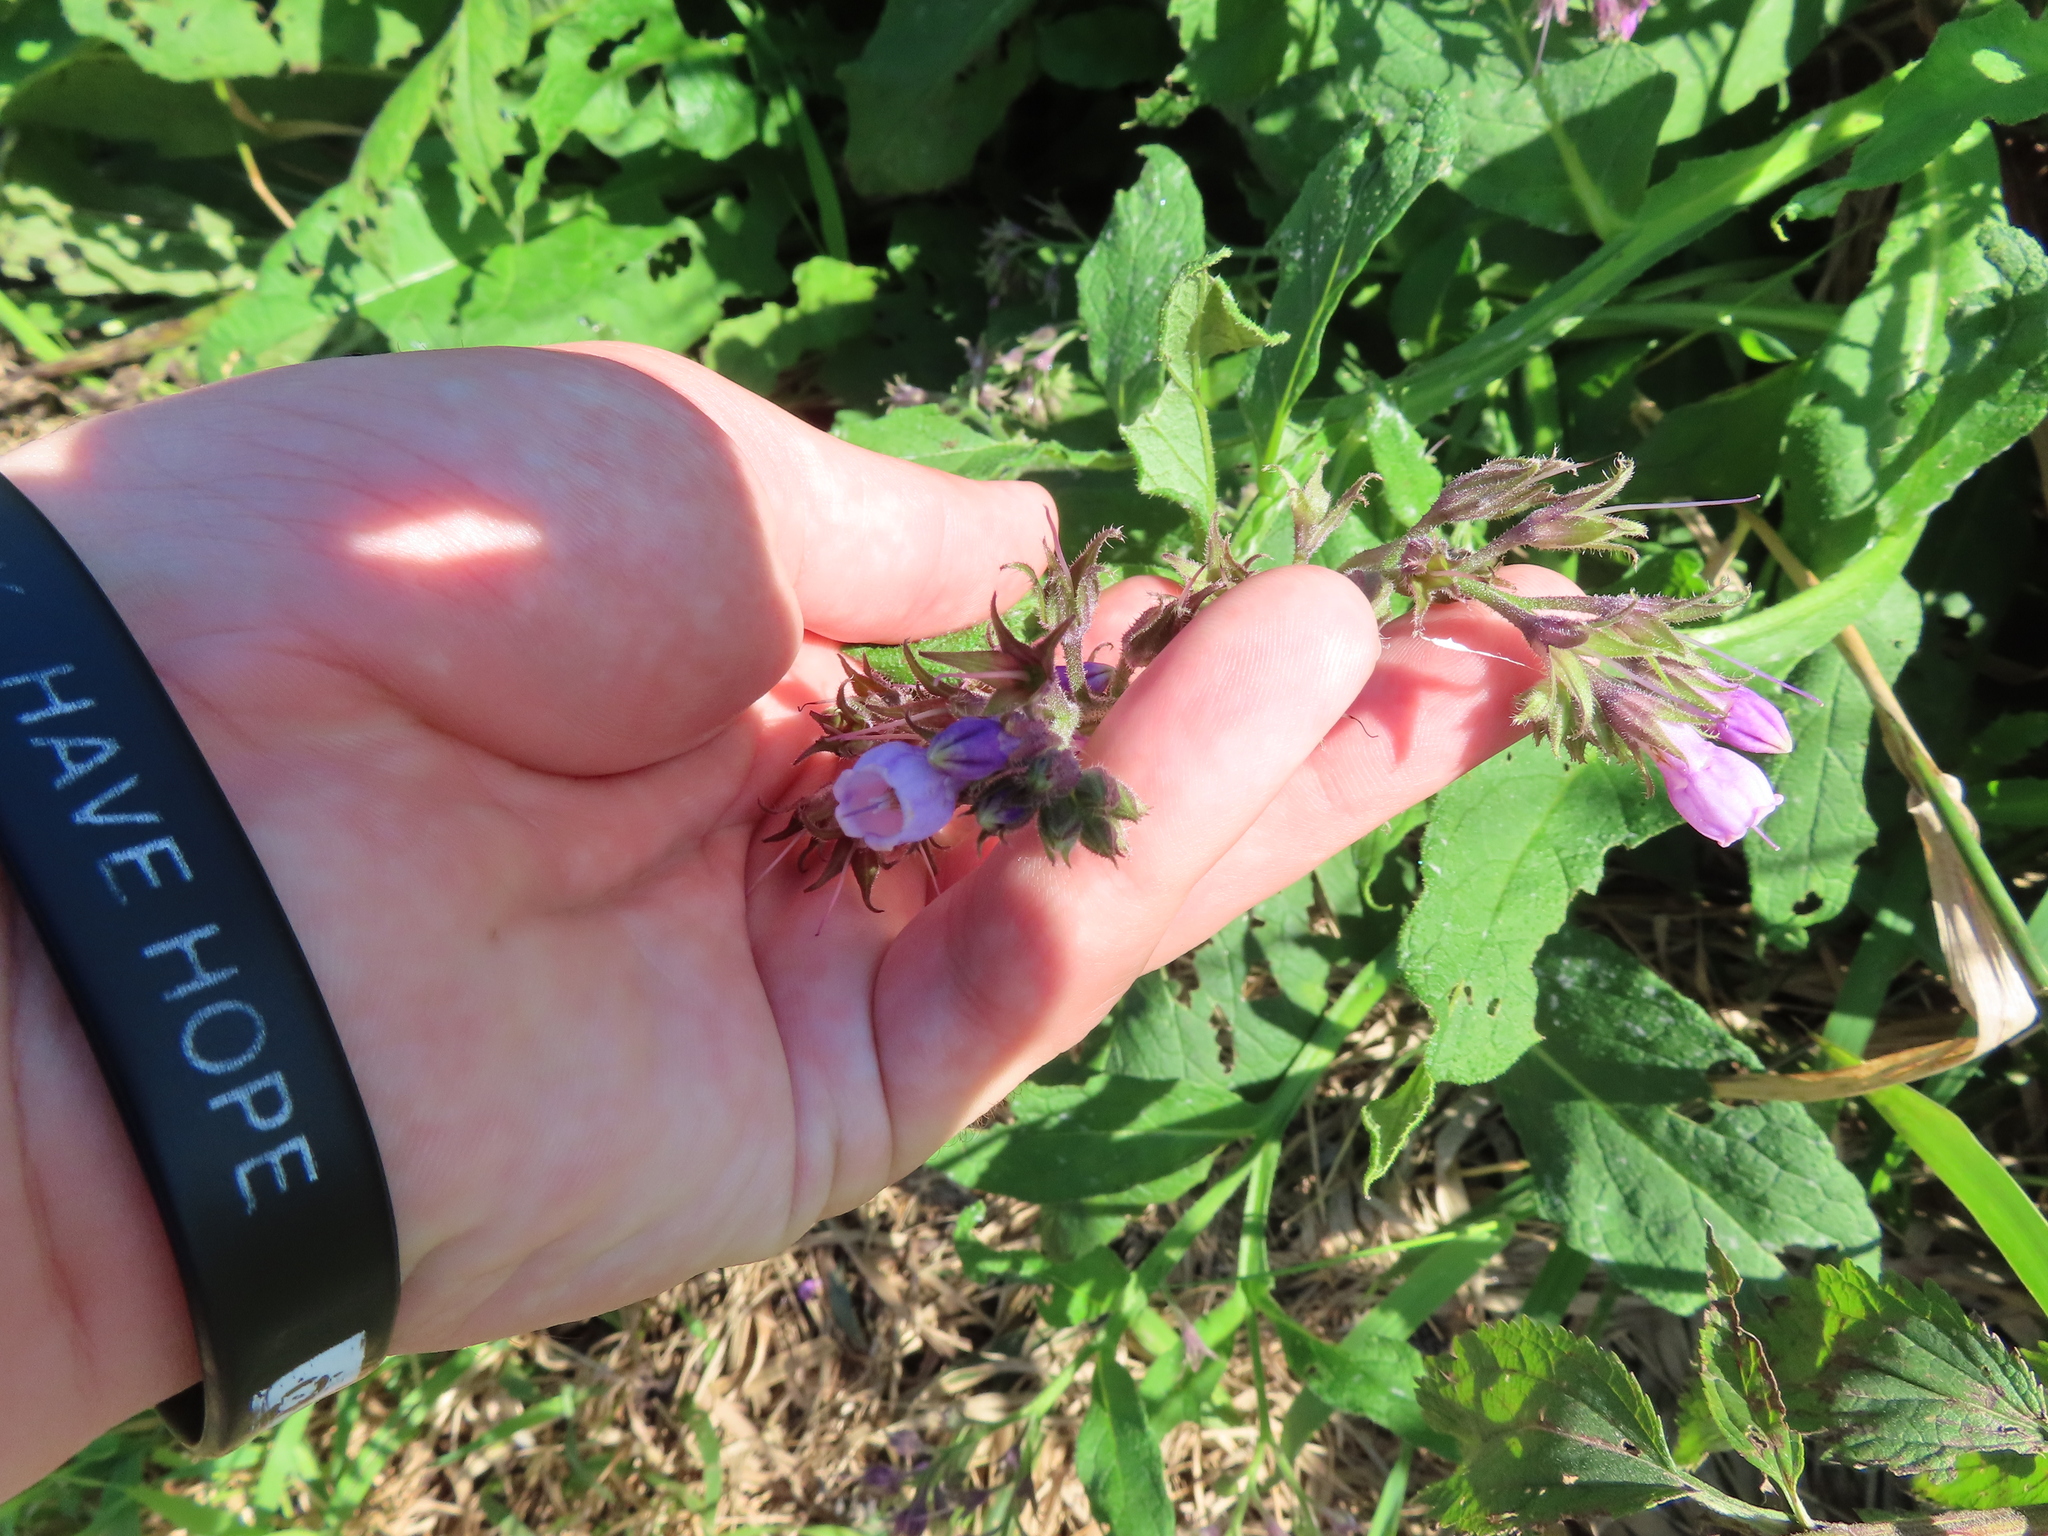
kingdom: Plantae
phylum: Tracheophyta
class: Magnoliopsida
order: Boraginales
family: Boraginaceae
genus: Symphytum
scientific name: Symphytum officinale
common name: Common comfrey
